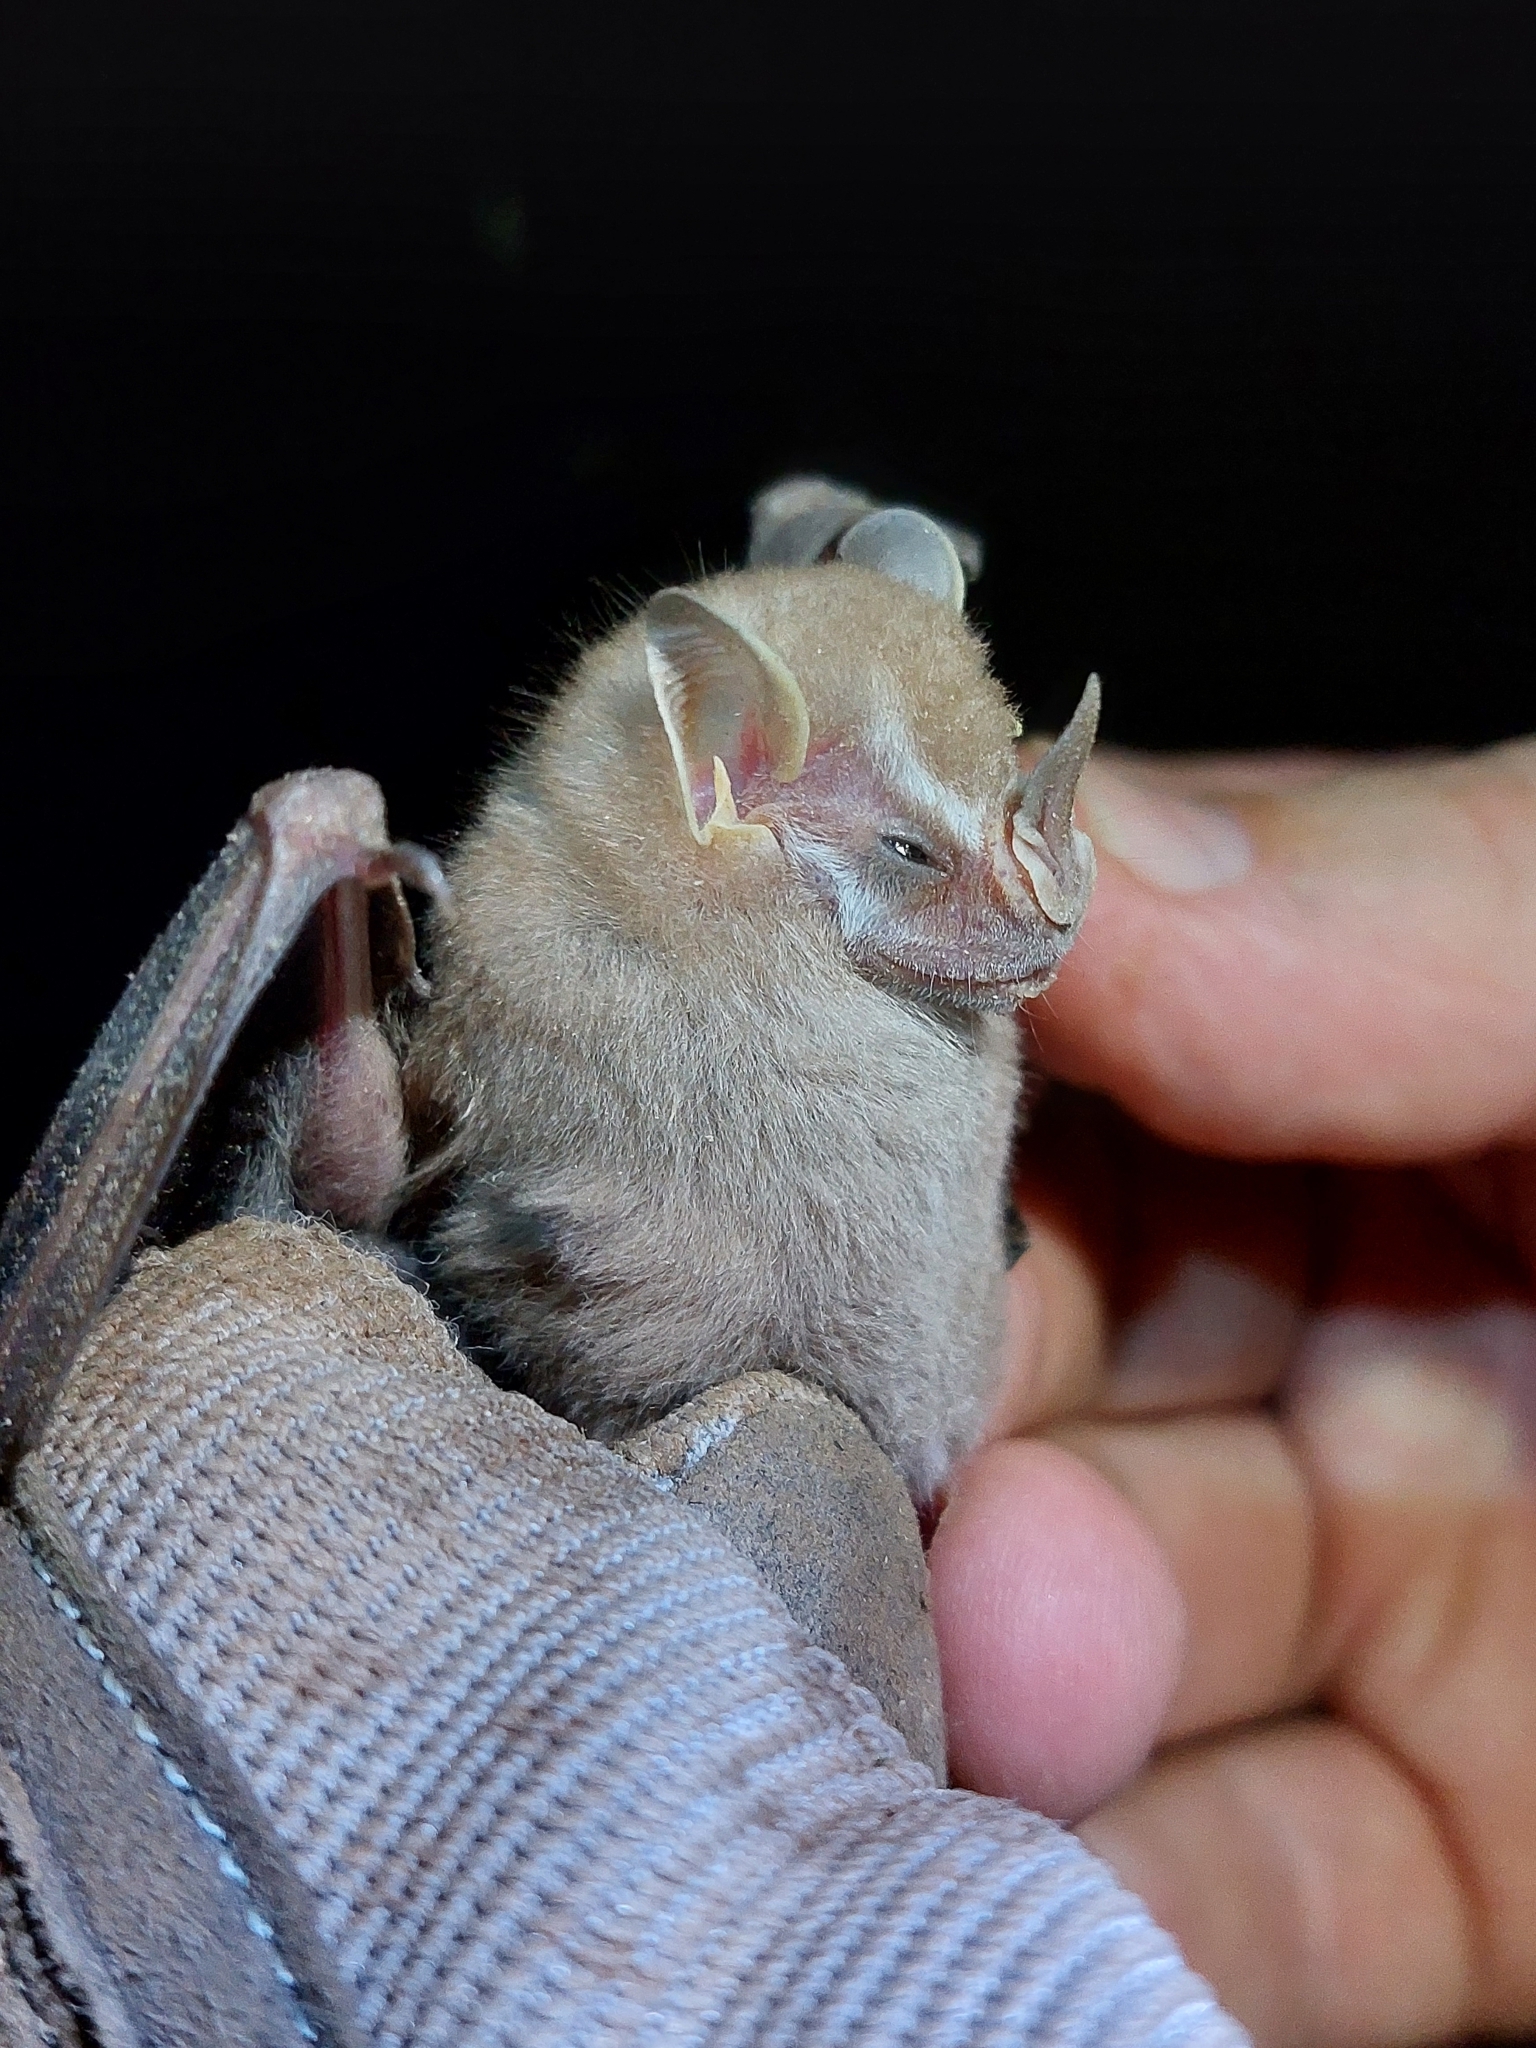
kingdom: Animalia
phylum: Chordata
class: Mammalia
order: Chiroptera
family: Phyllostomidae
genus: Vampyressa
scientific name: Vampyressa thyone
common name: Northern little yellow-eared bat
